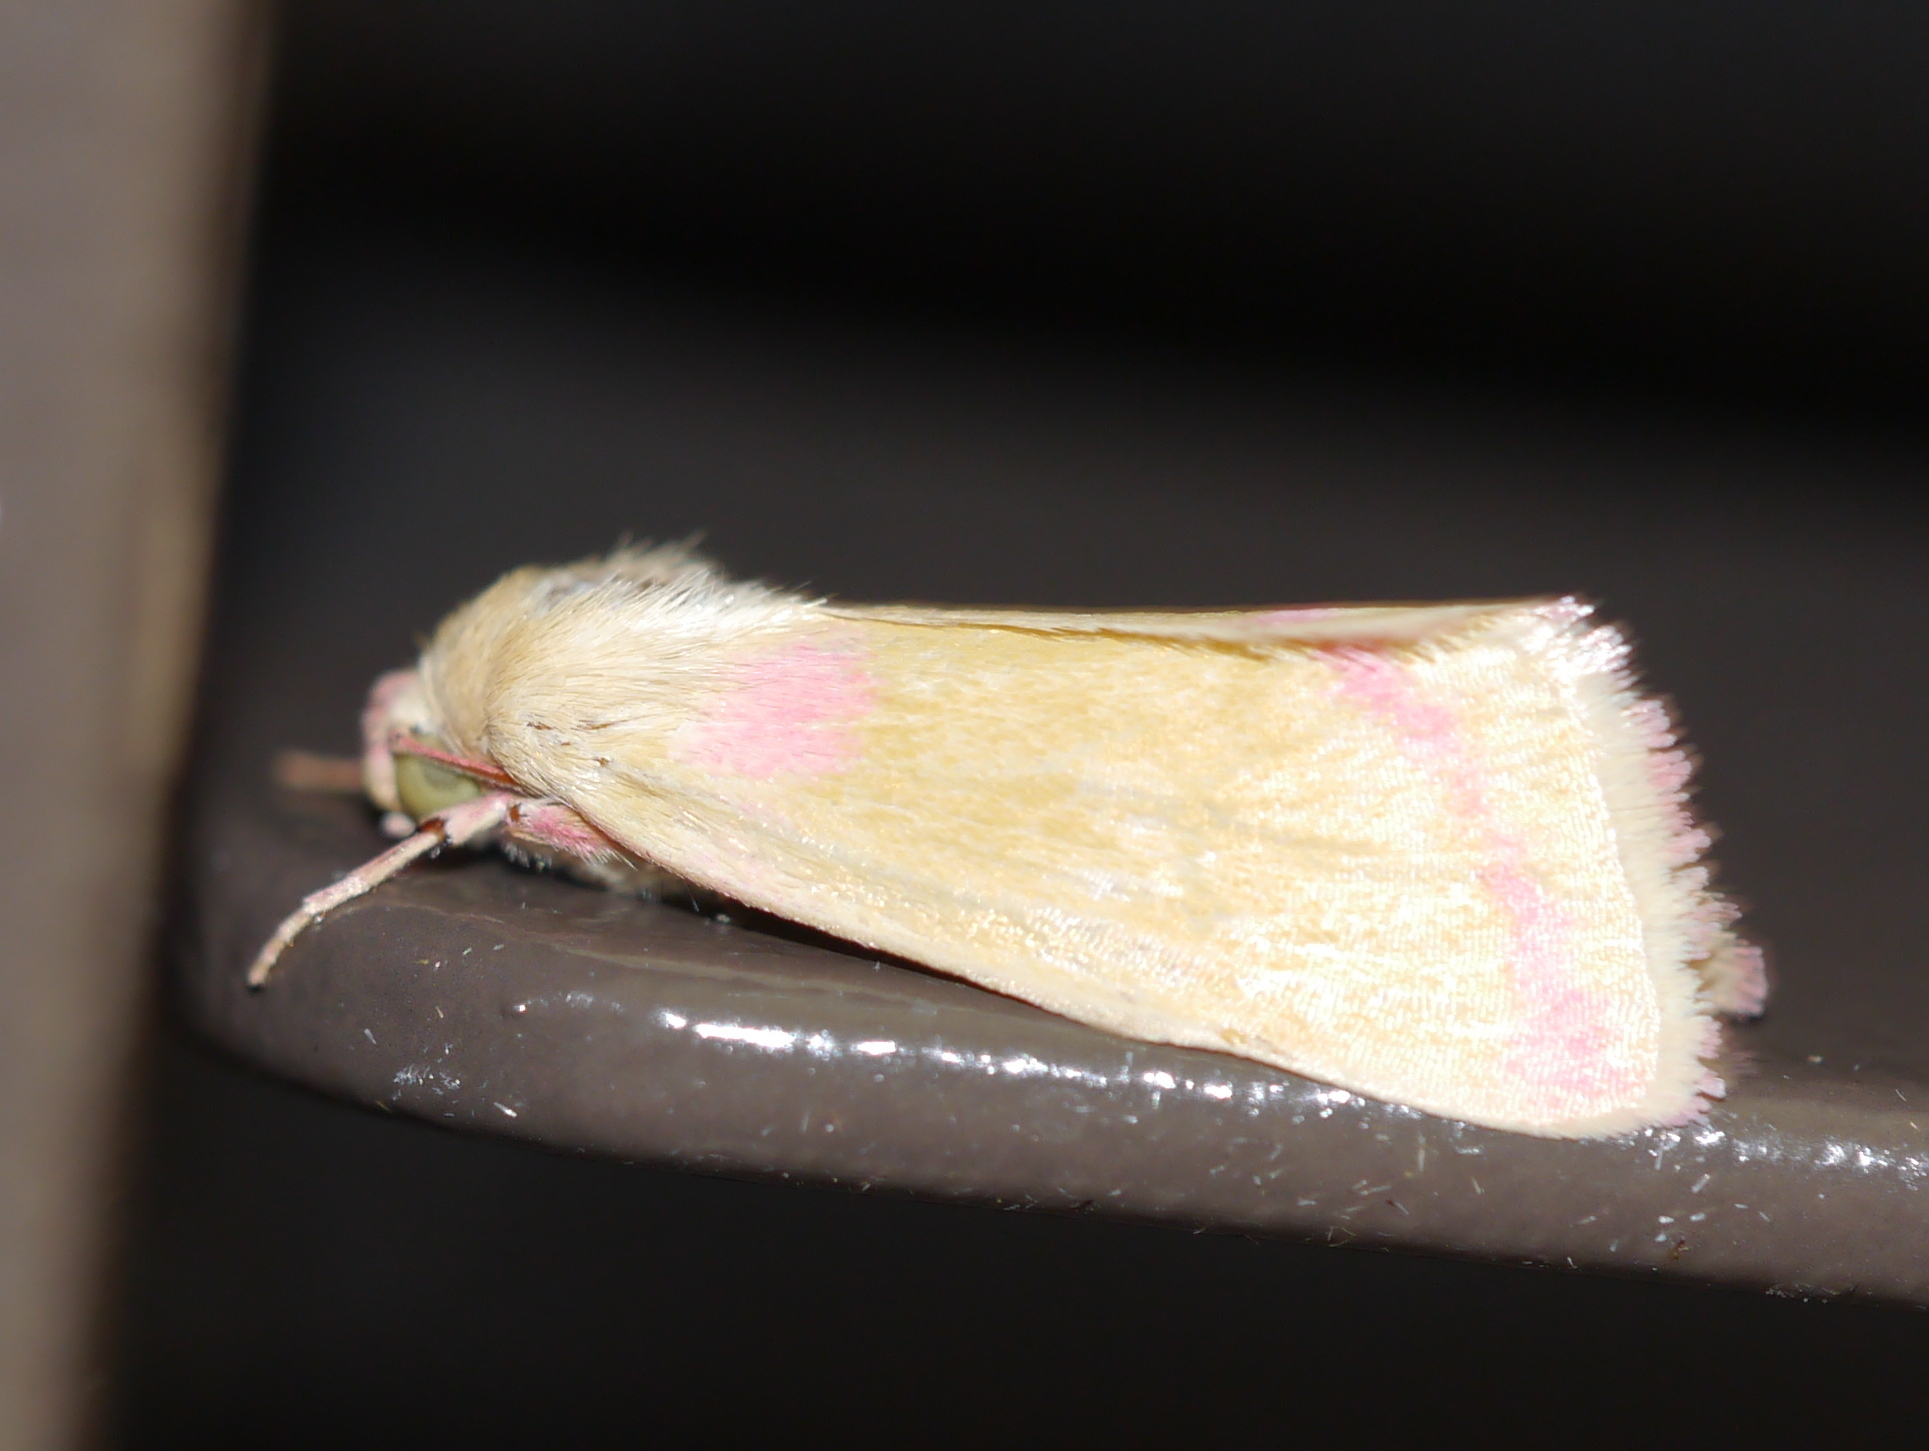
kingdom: Animalia
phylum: Arthropoda
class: Insecta
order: Lepidoptera
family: Noctuidae
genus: Heliocheilus
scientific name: Heliocheilus toralis
